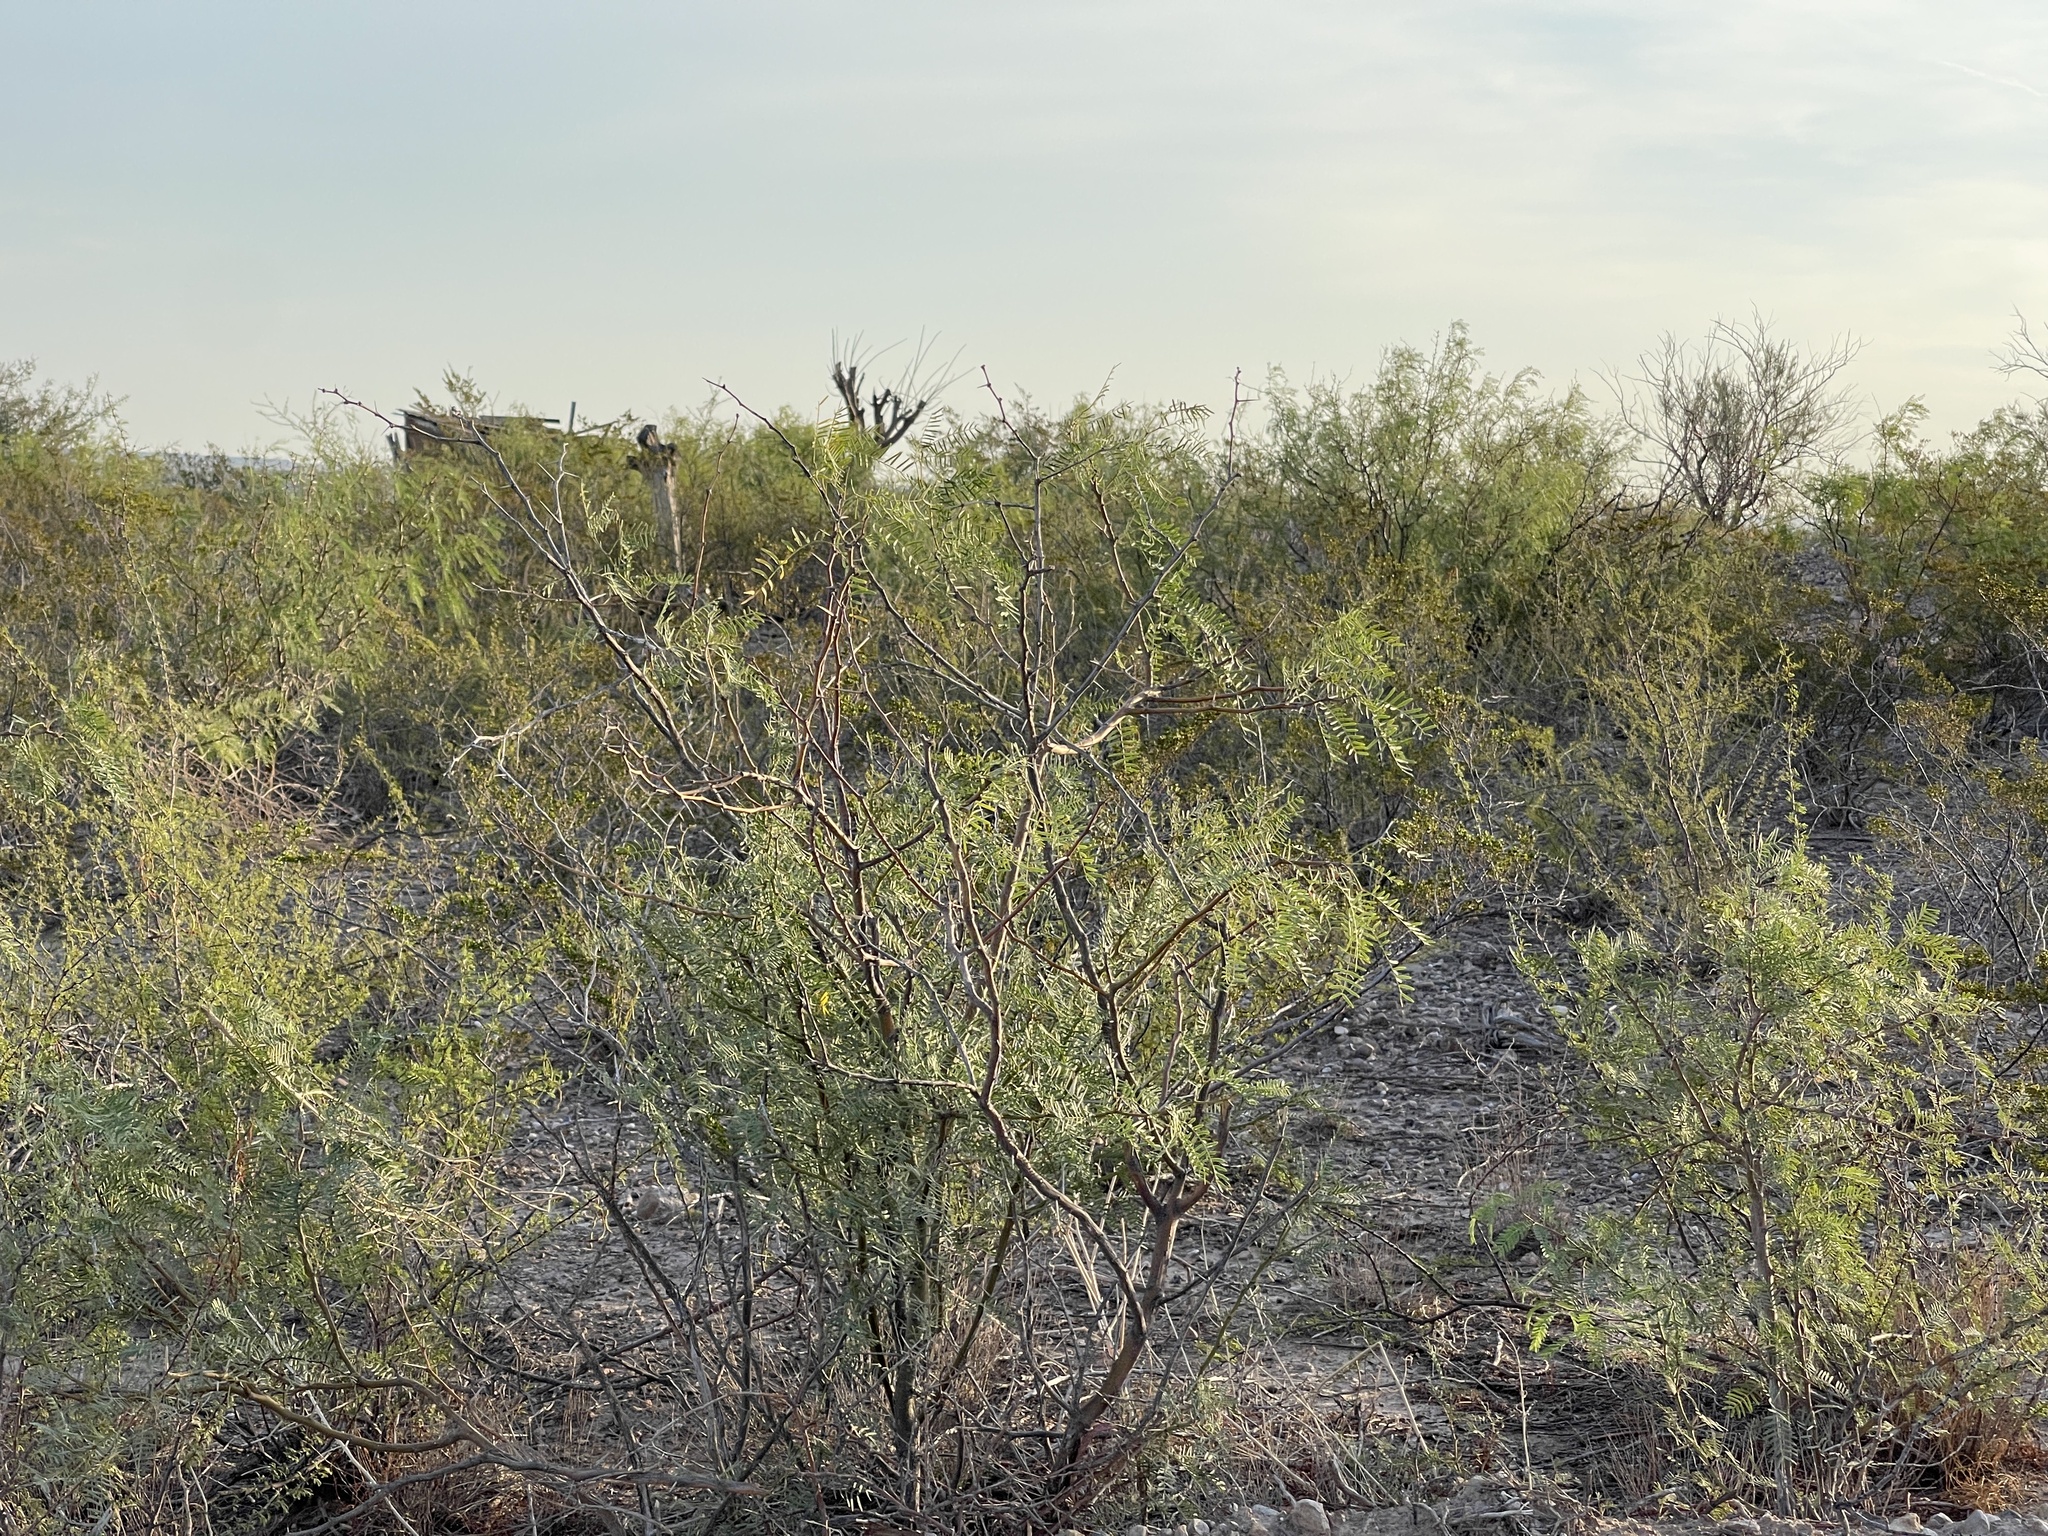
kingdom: Plantae
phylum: Tracheophyta
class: Magnoliopsida
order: Fabales
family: Fabaceae
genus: Prosopis
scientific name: Prosopis glandulosa
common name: Honey mesquite
